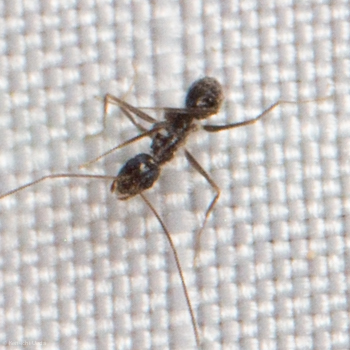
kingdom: Animalia
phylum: Arthropoda
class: Insecta
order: Hymenoptera
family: Formicidae
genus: Paratrechina
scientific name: Paratrechina longicornis
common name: Longhorned crazy ant
